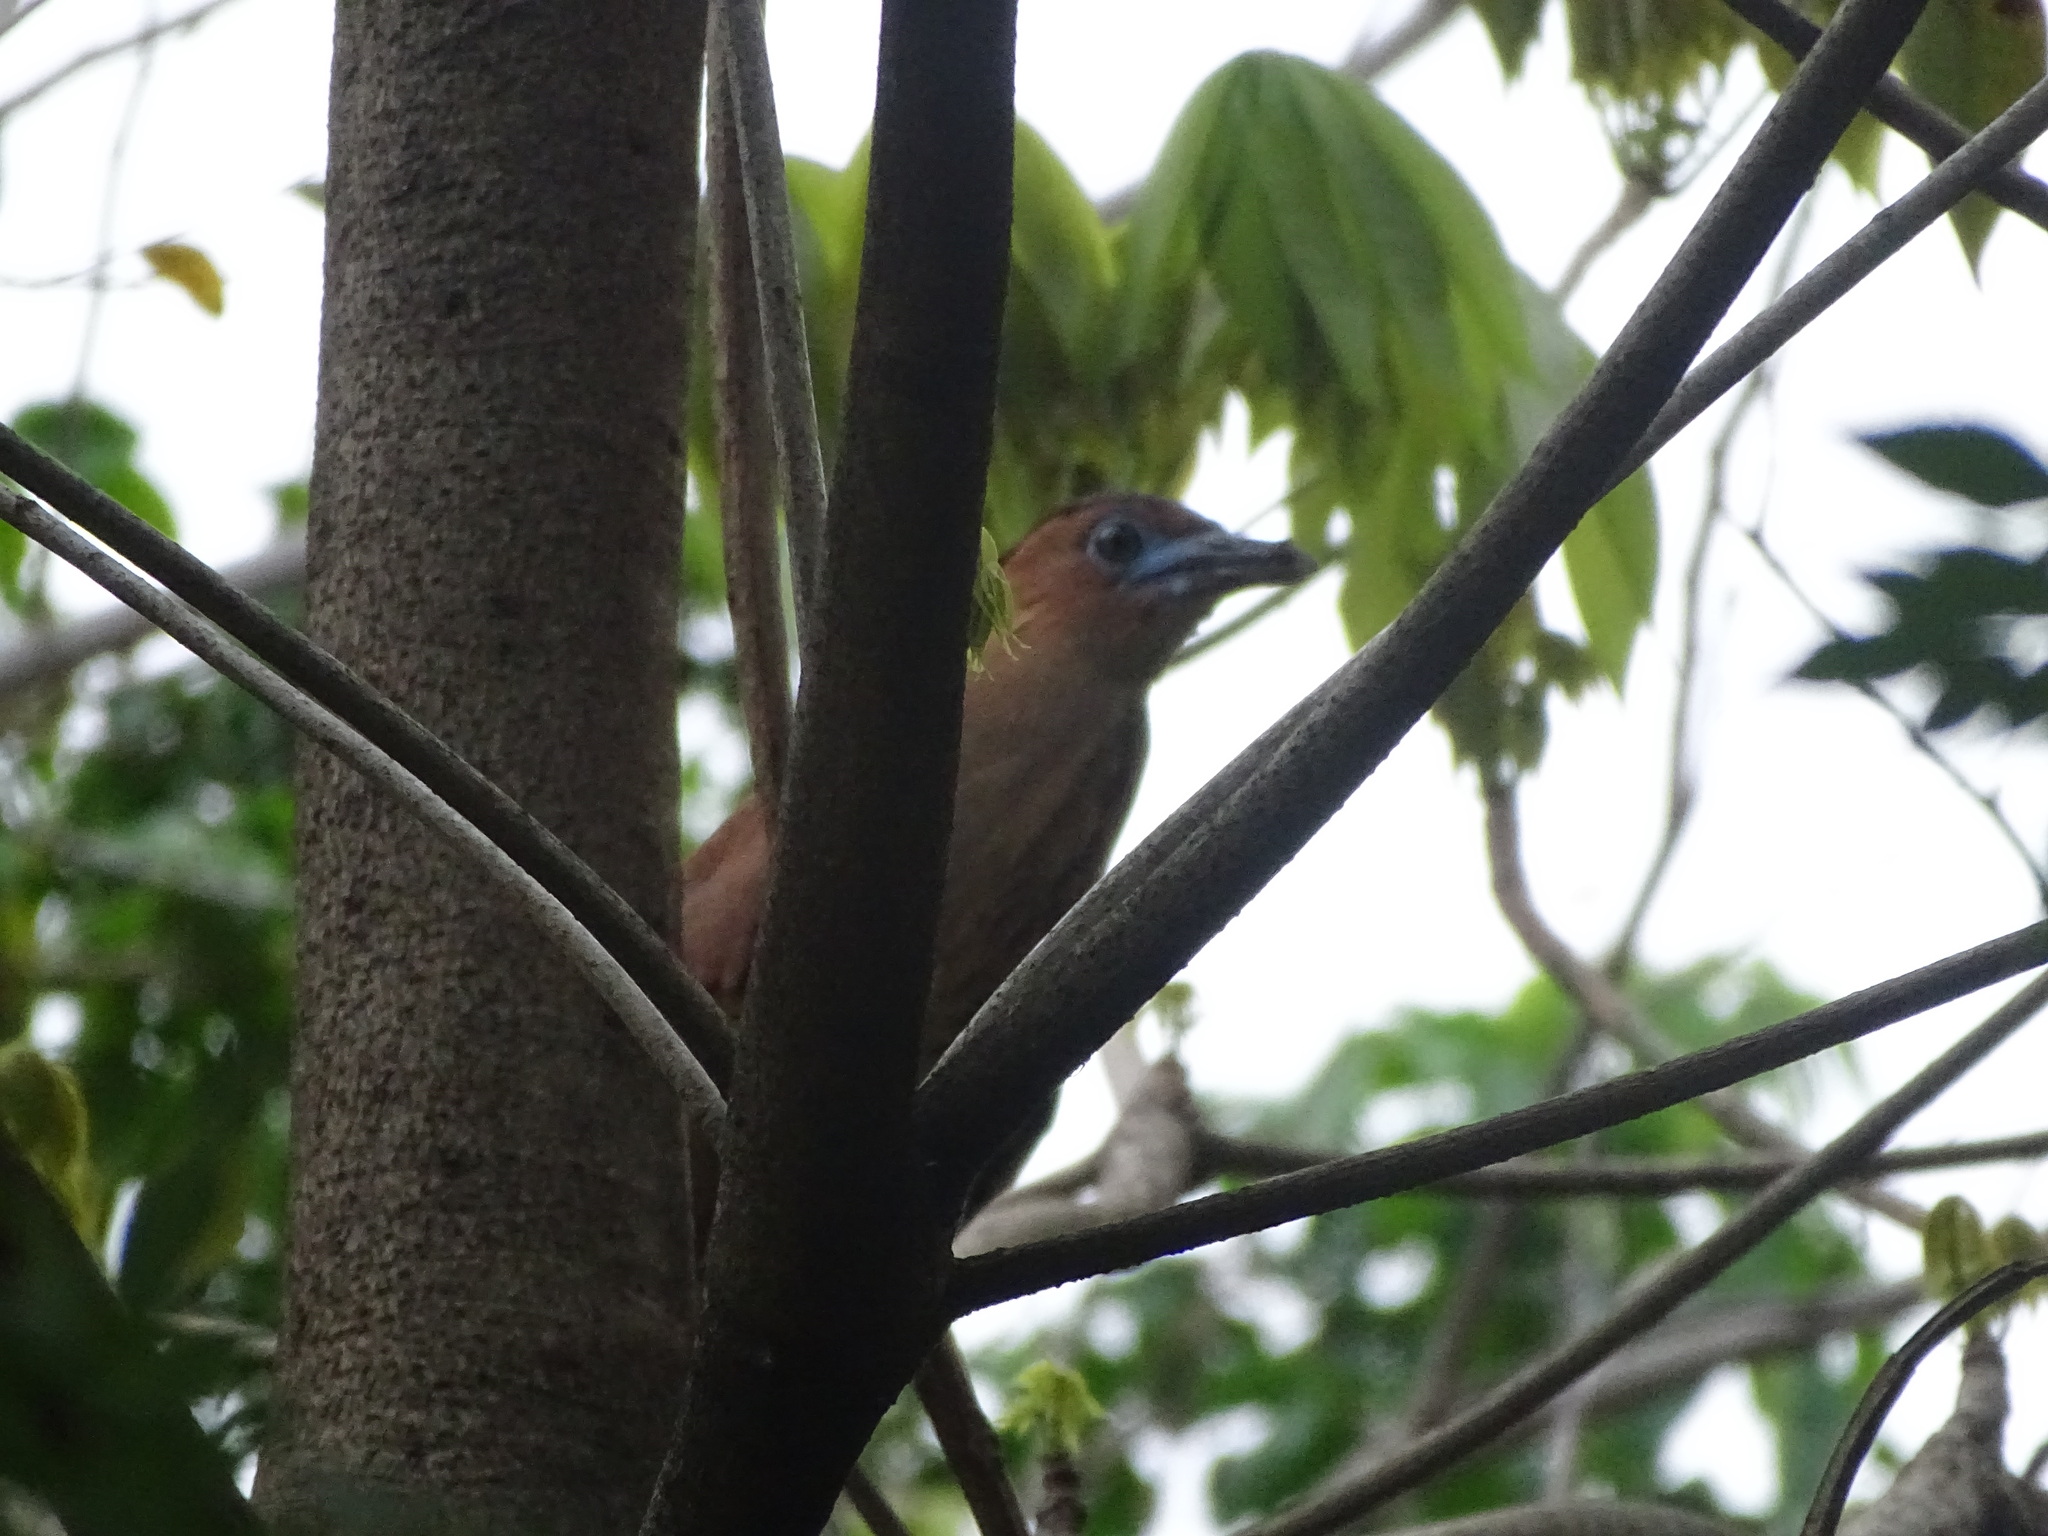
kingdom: Animalia
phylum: Chordata
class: Aves
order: Pelecaniformes
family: Ardeidae
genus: Gorsachius
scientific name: Gorsachius melanolophus
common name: Malayan night heron
